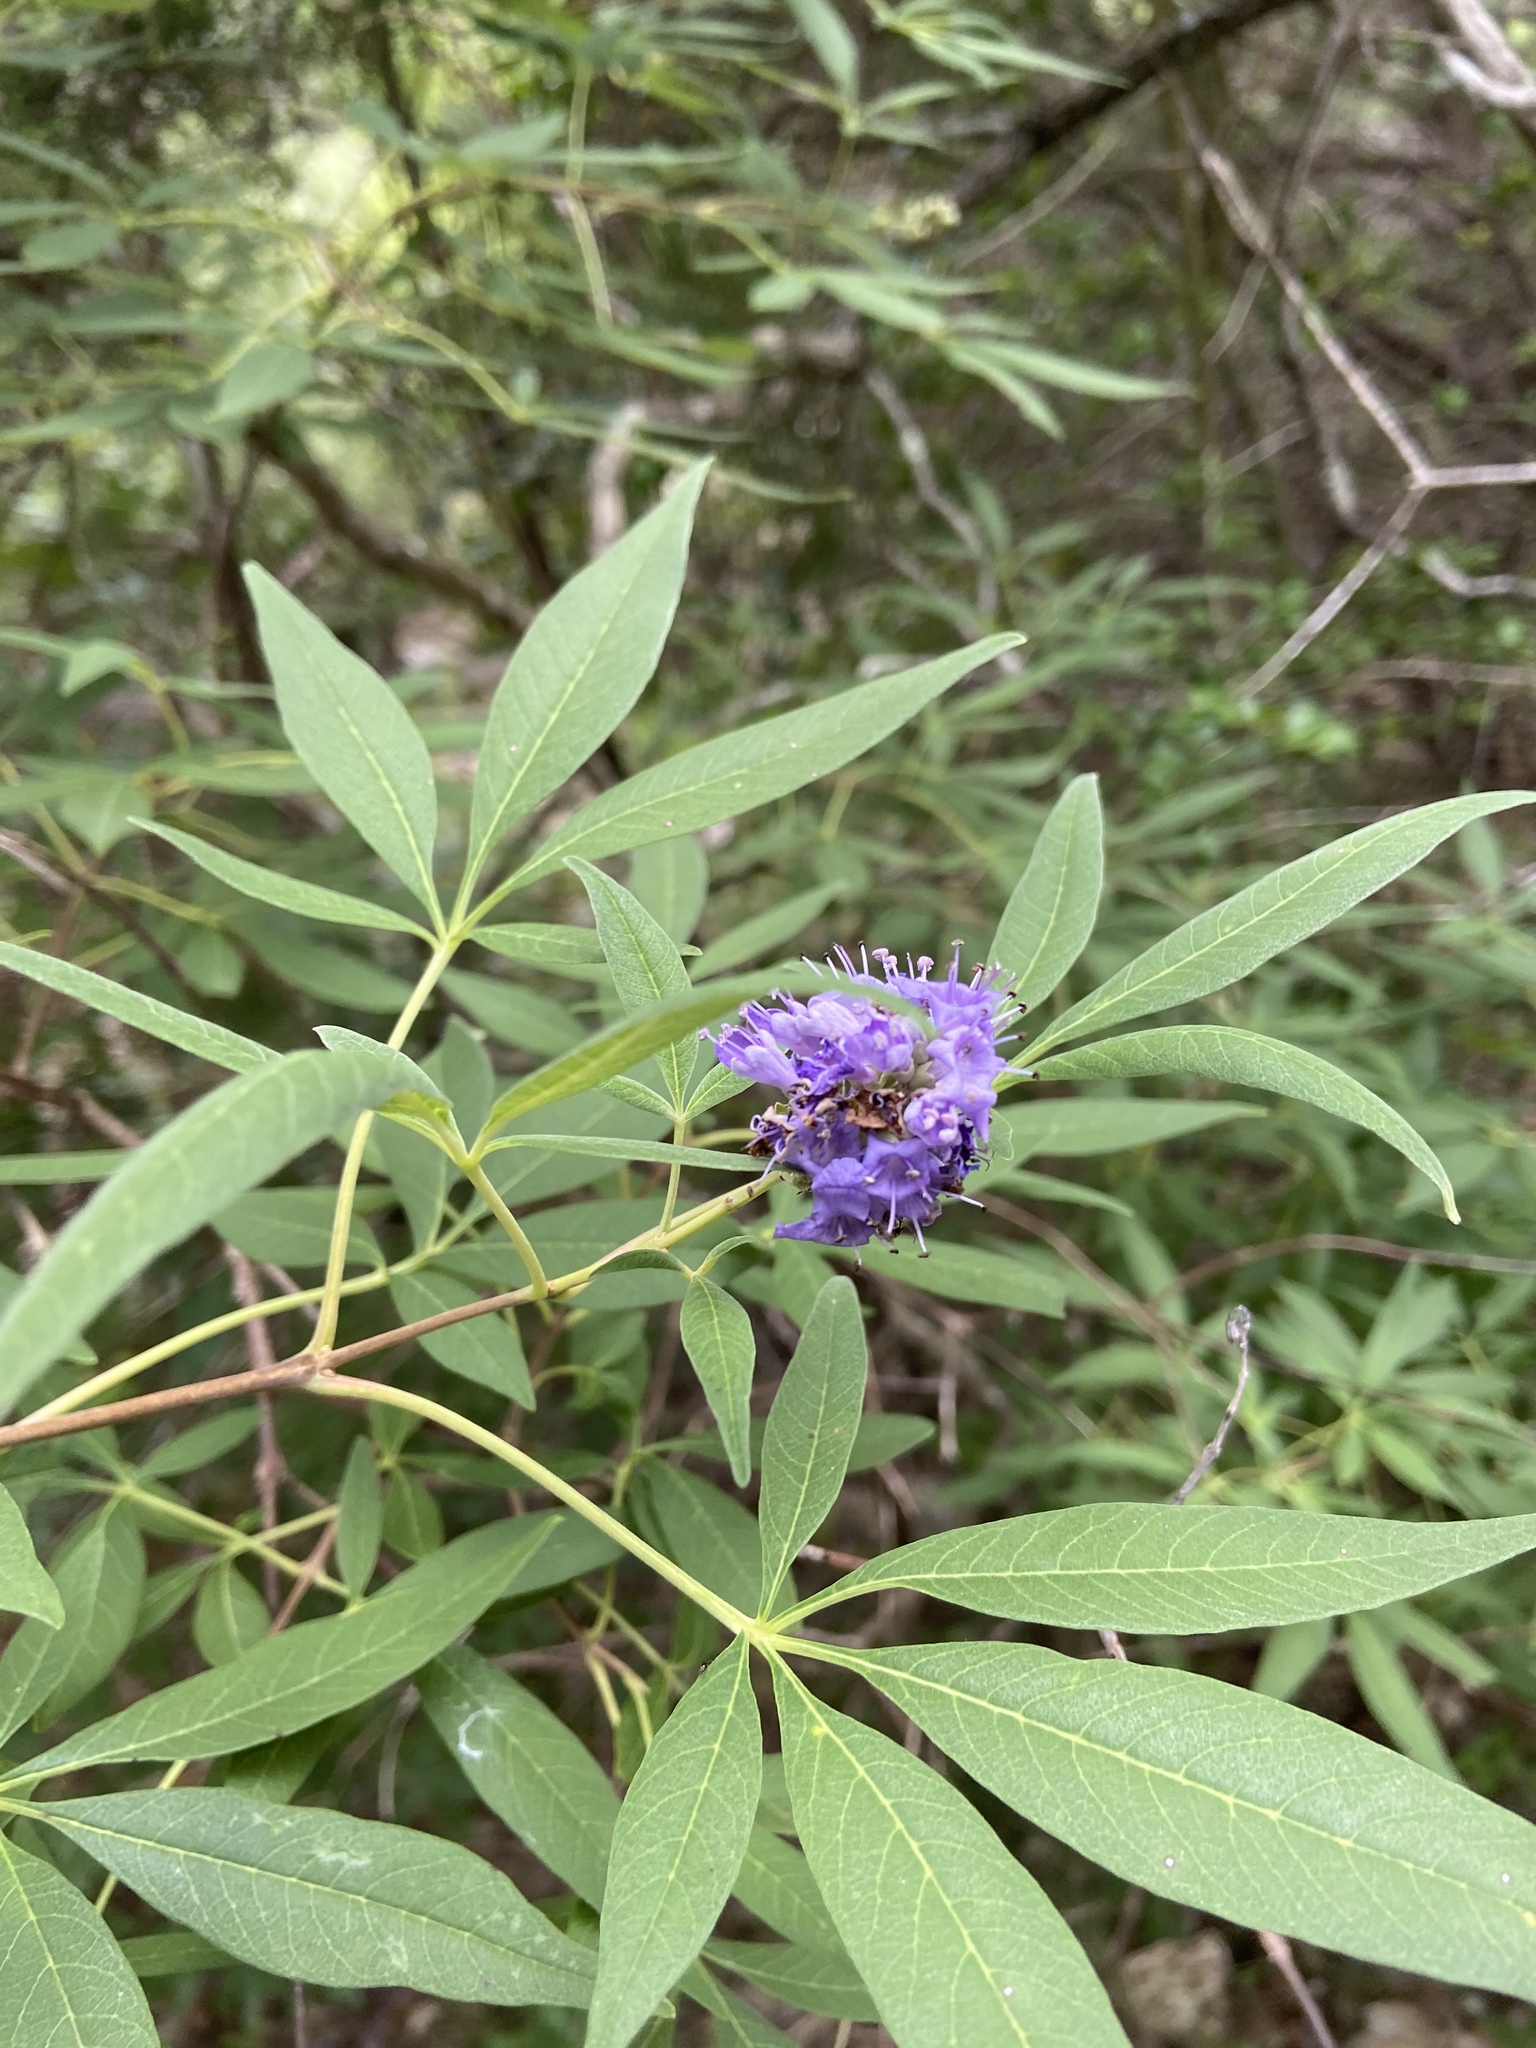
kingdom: Plantae
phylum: Tracheophyta
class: Magnoliopsida
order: Lamiales
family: Lamiaceae
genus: Vitex
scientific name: Vitex agnus-castus
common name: Chasteberry
